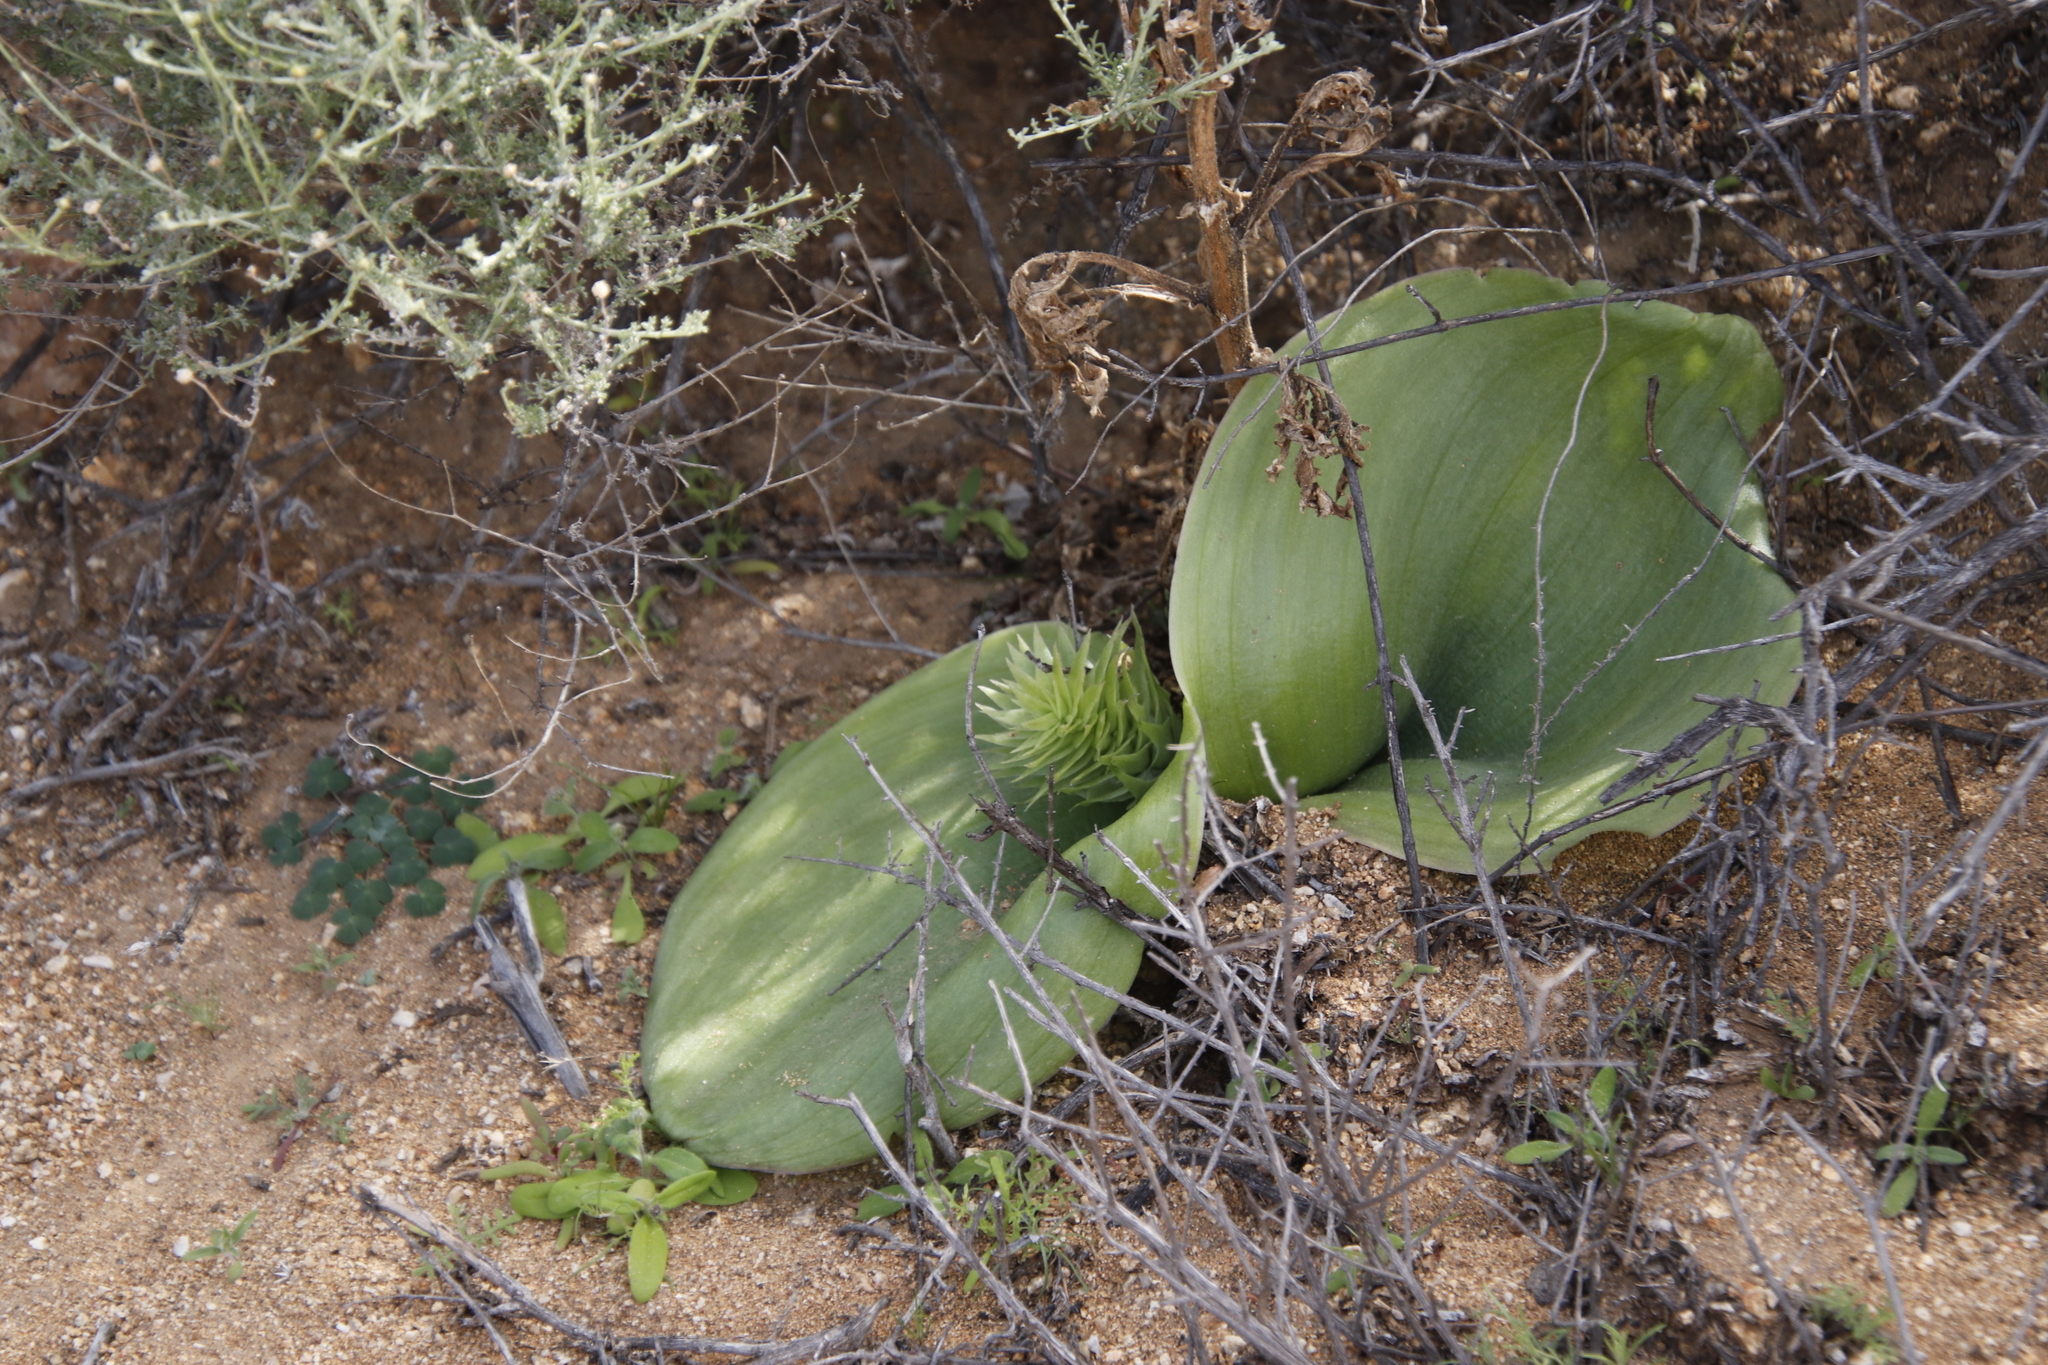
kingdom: Plantae
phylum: Tracheophyta
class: Liliopsida
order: Asparagales
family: Asparagaceae
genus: Massonia
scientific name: Massonia bifolia
